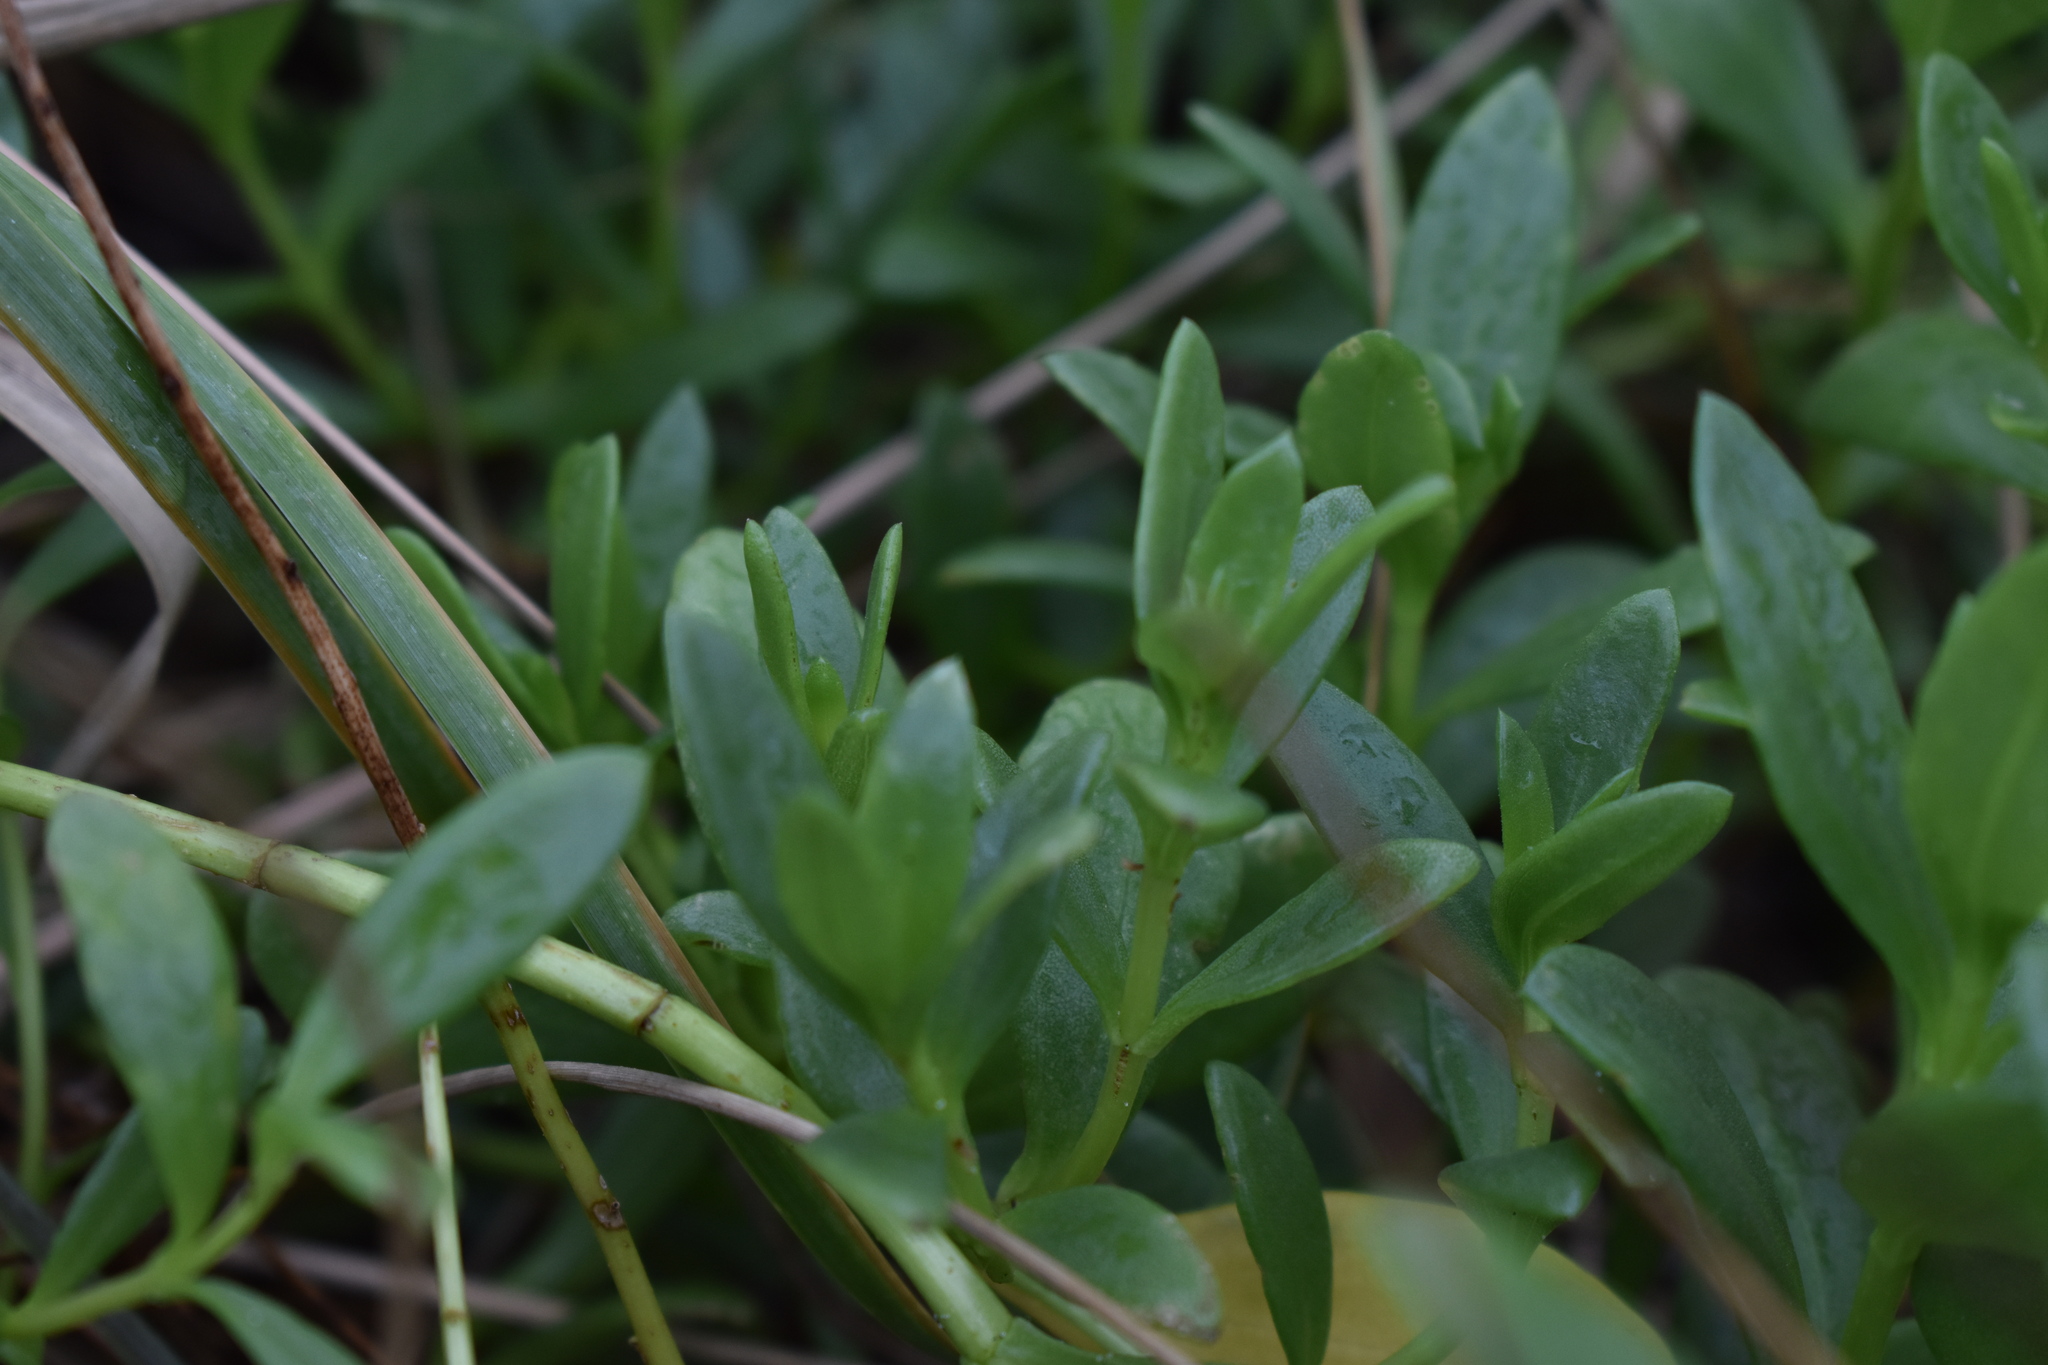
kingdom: Plantae
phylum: Tracheophyta
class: Magnoliopsida
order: Asterales
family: Asteraceae
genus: Iva
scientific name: Iva imbricata
